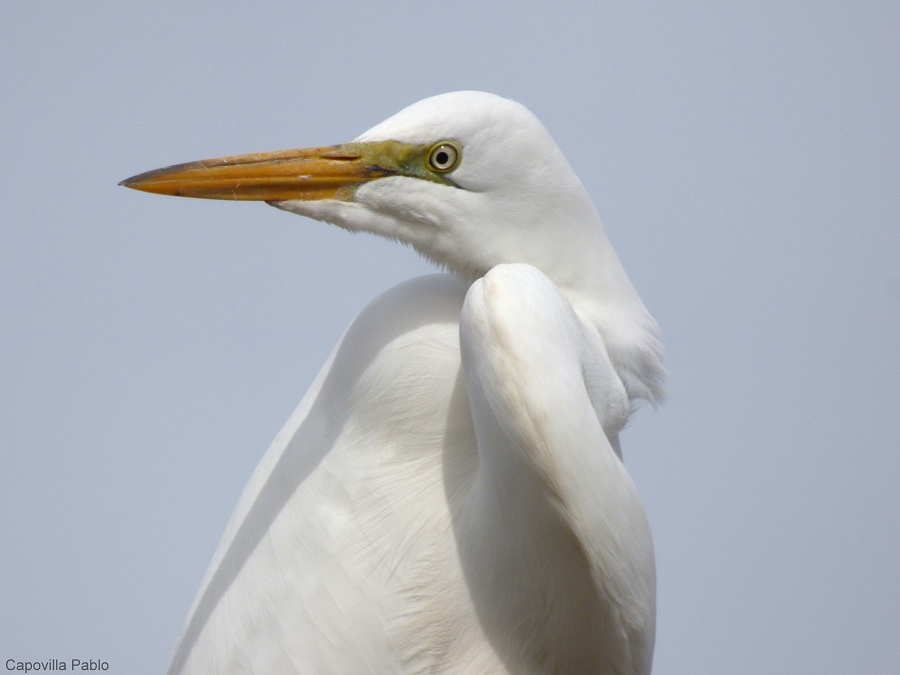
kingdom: Animalia
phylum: Chordata
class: Aves
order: Pelecaniformes
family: Ardeidae
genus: Ardea
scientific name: Ardea alba
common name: Great egret
